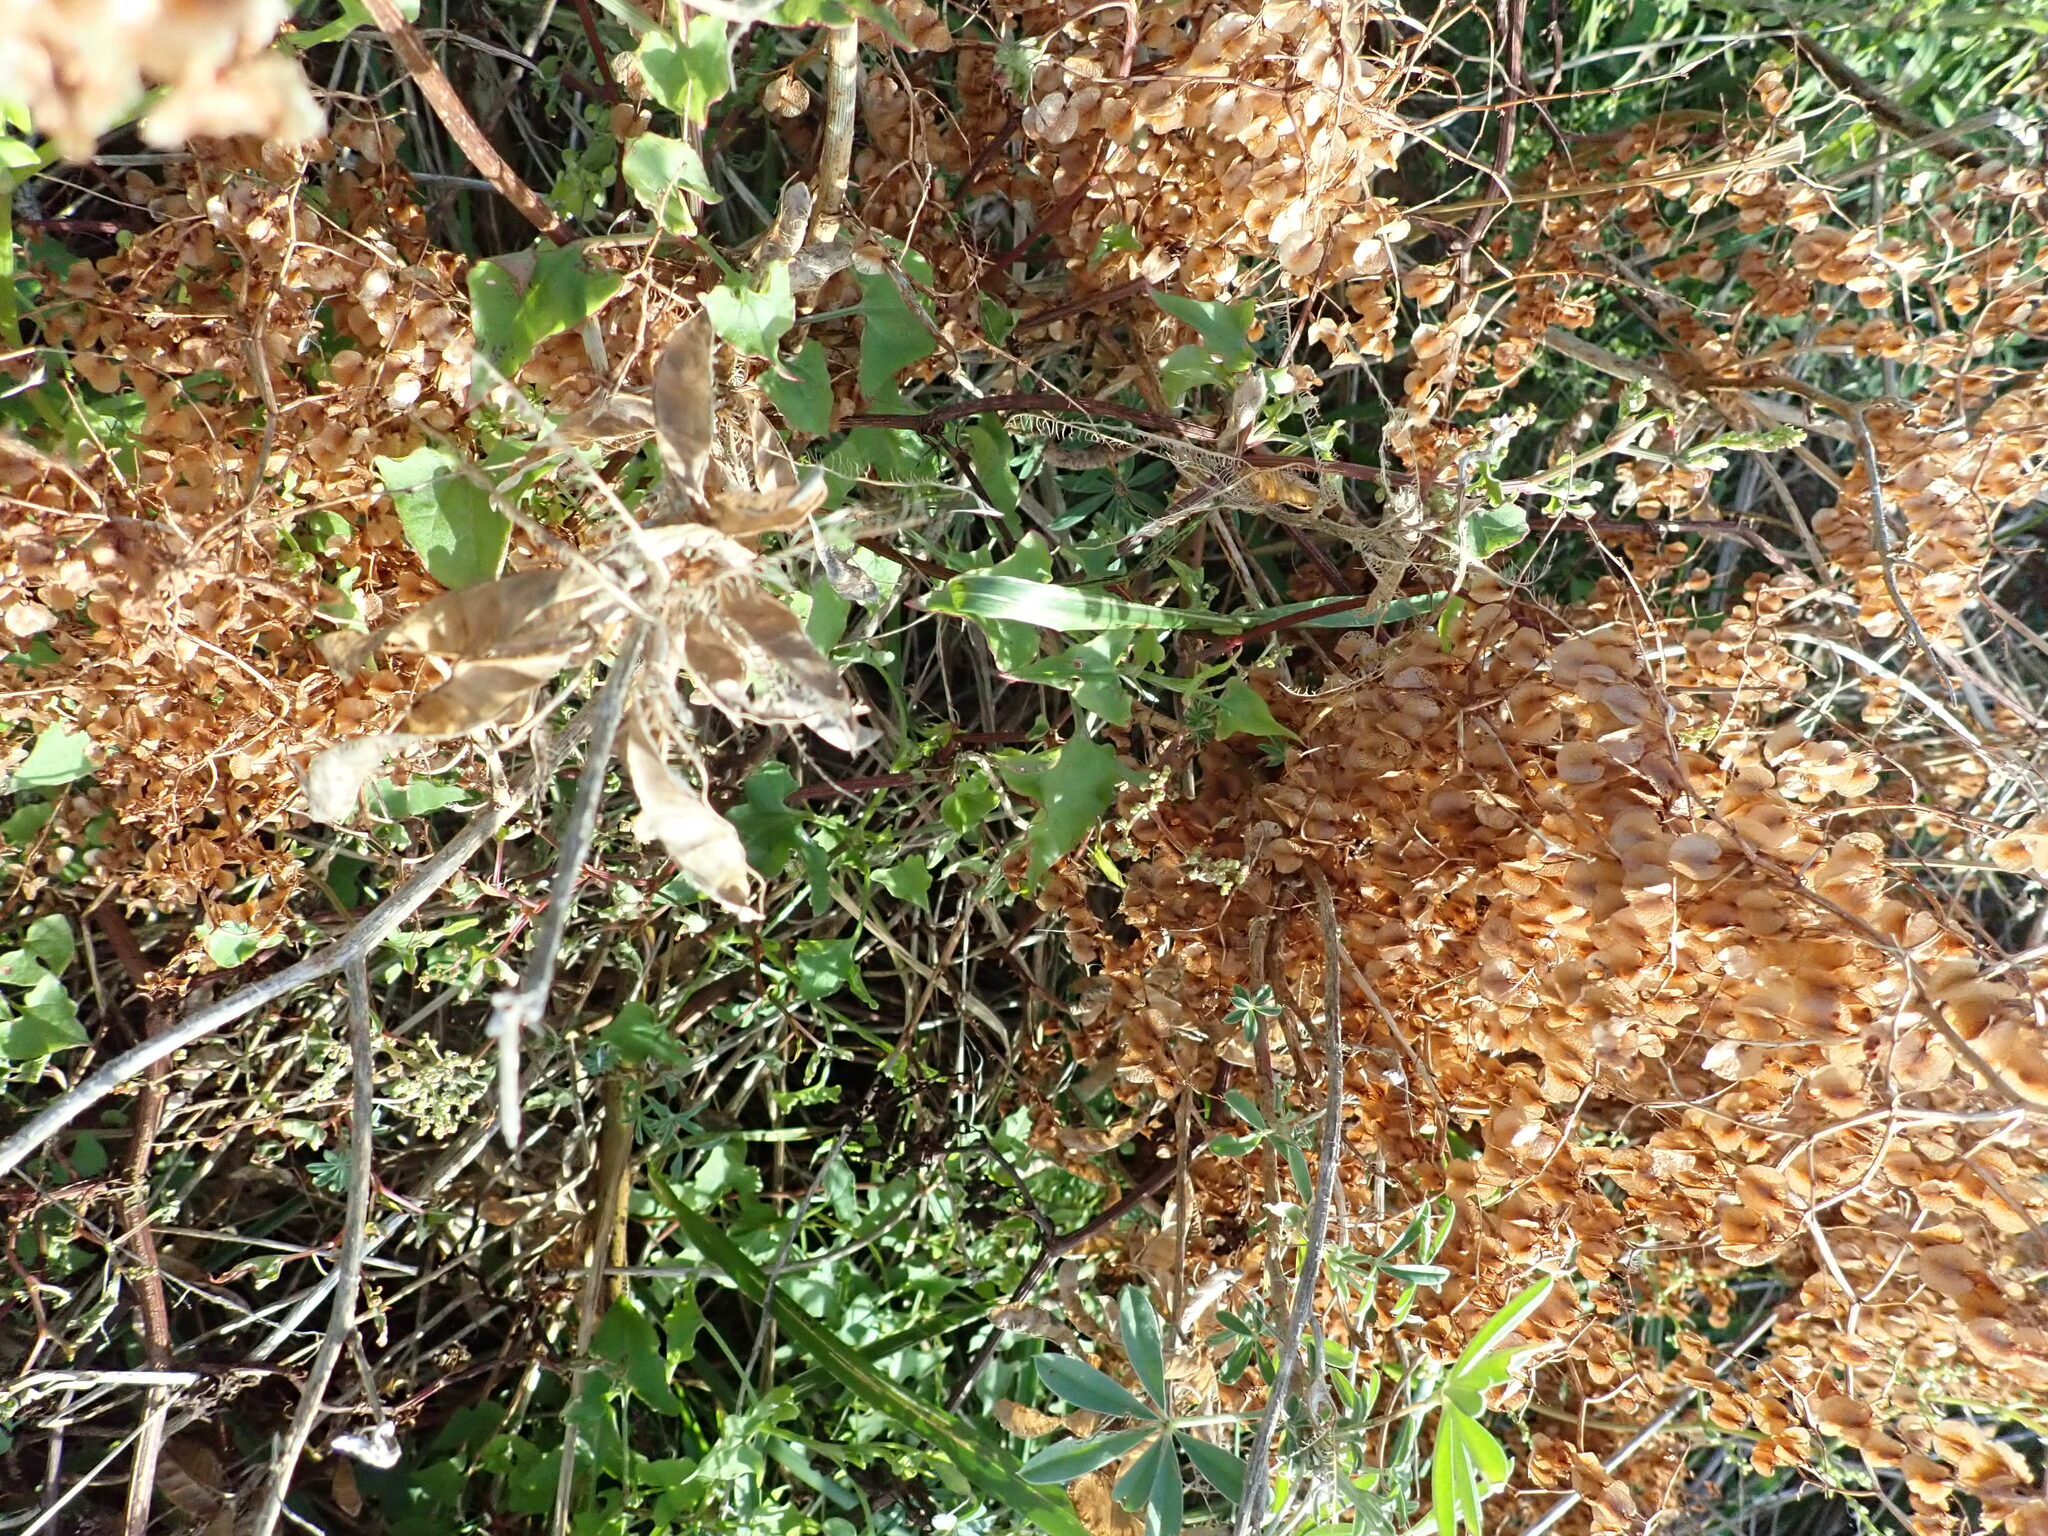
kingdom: Plantae
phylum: Tracheophyta
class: Magnoliopsida
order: Caryophyllales
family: Polygonaceae
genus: Rumex
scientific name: Rumex sagittatus
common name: Climbing dock
